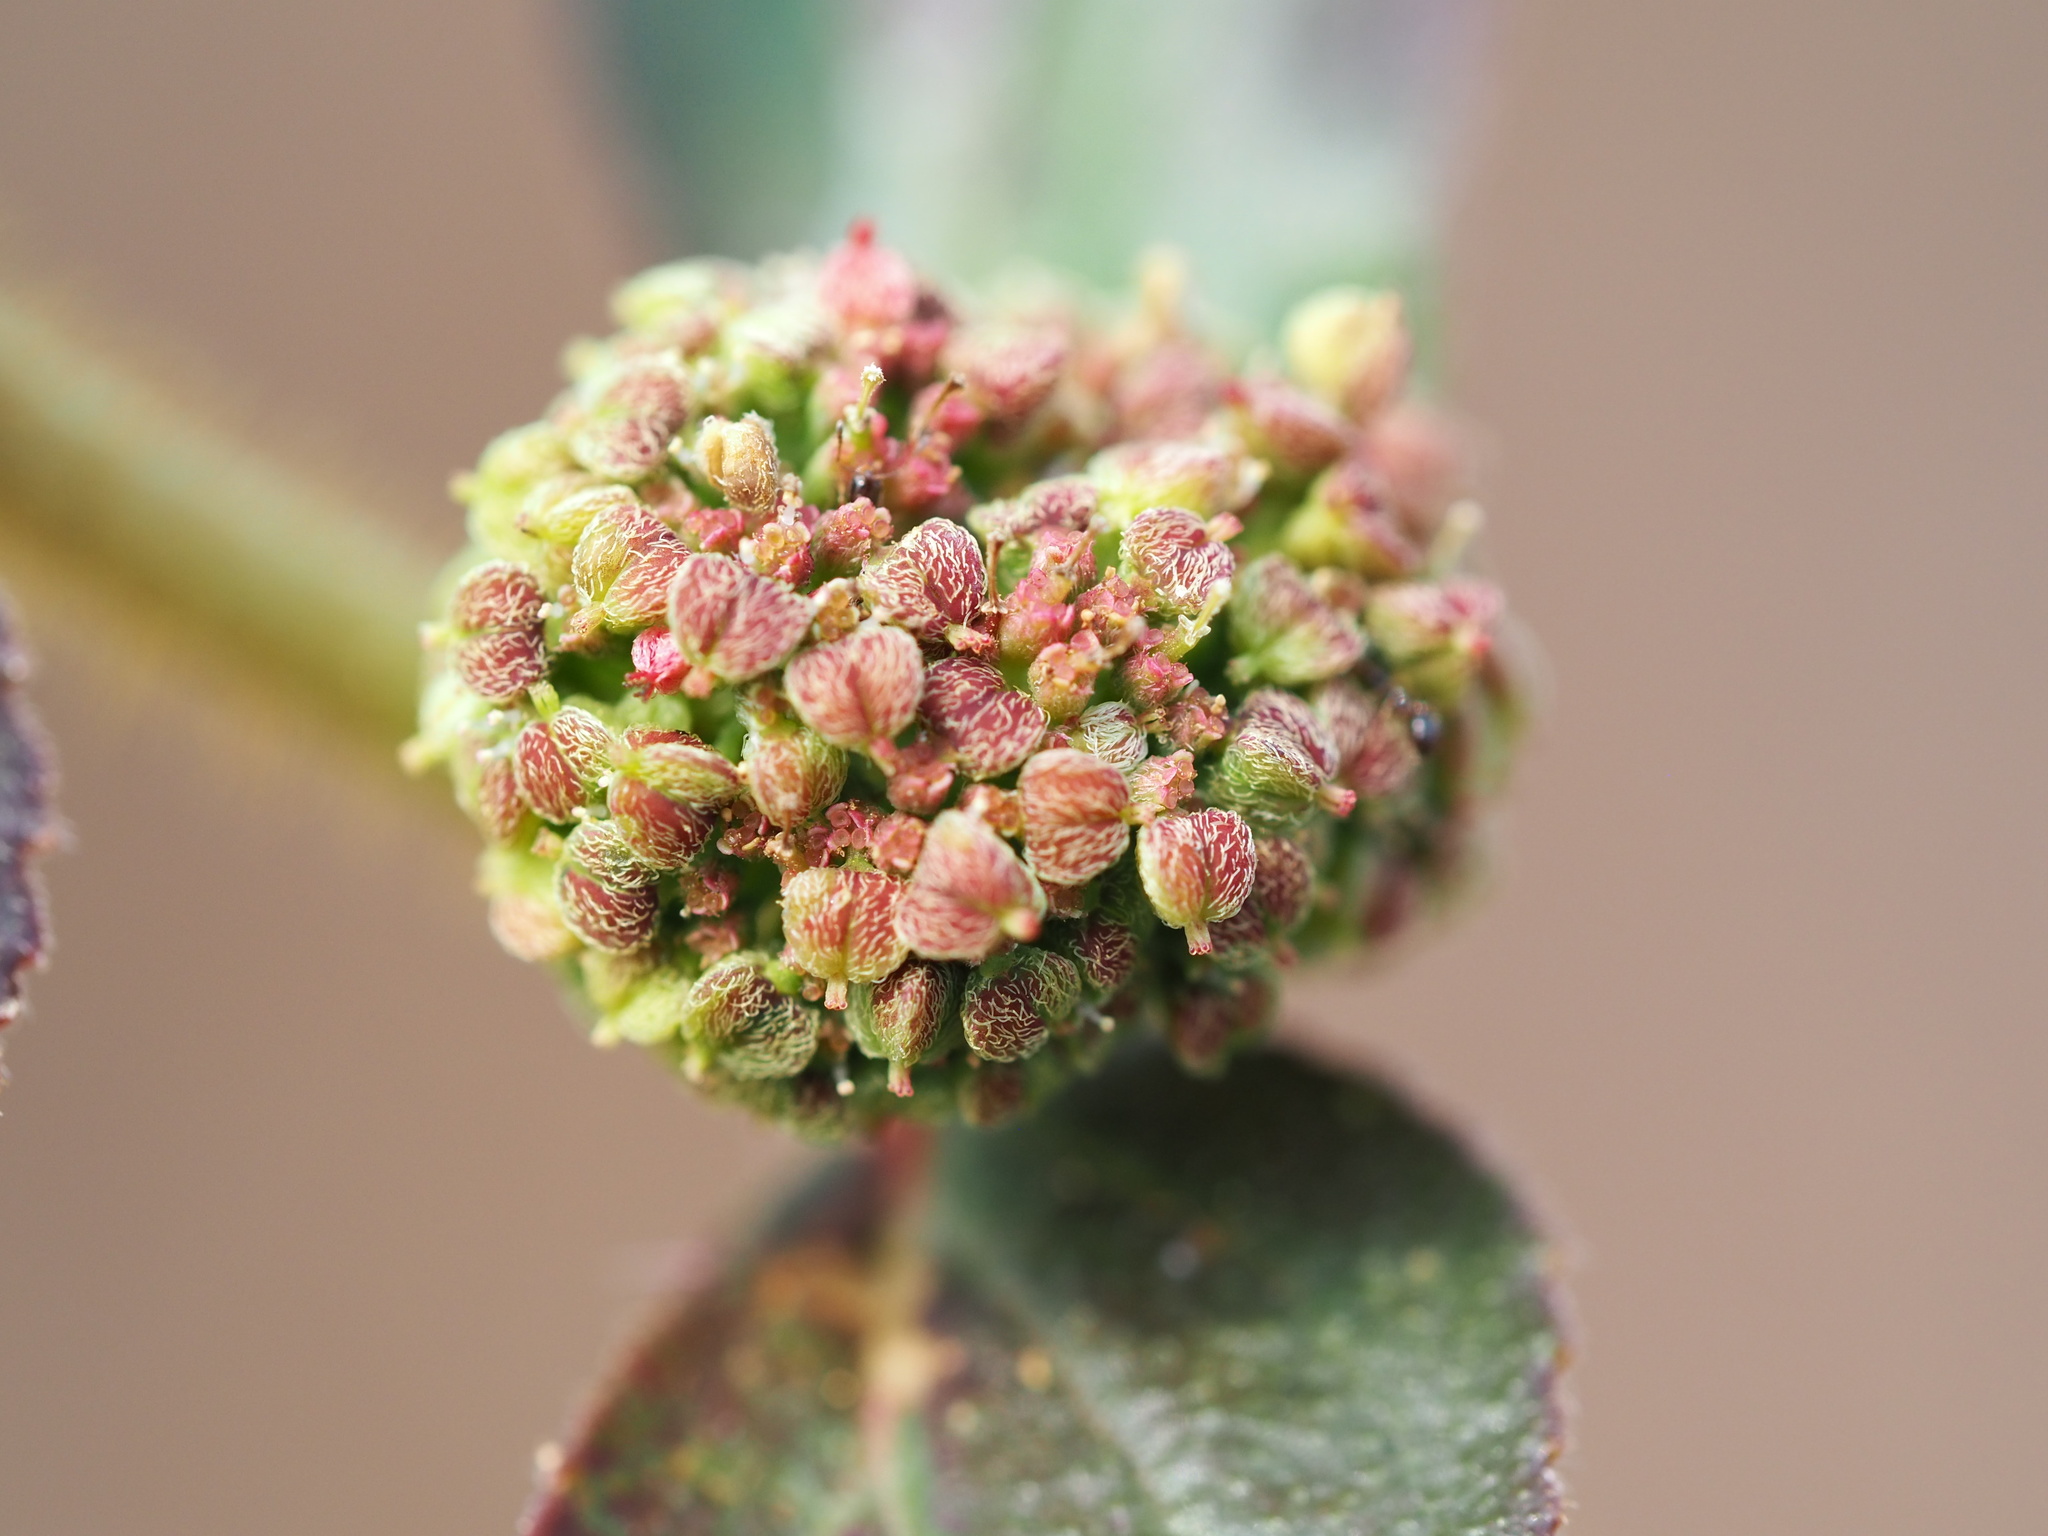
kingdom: Plantae
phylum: Tracheophyta
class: Magnoliopsida
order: Malpighiales
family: Euphorbiaceae
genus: Euphorbia
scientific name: Euphorbia hirta
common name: Pillpod sandmat
